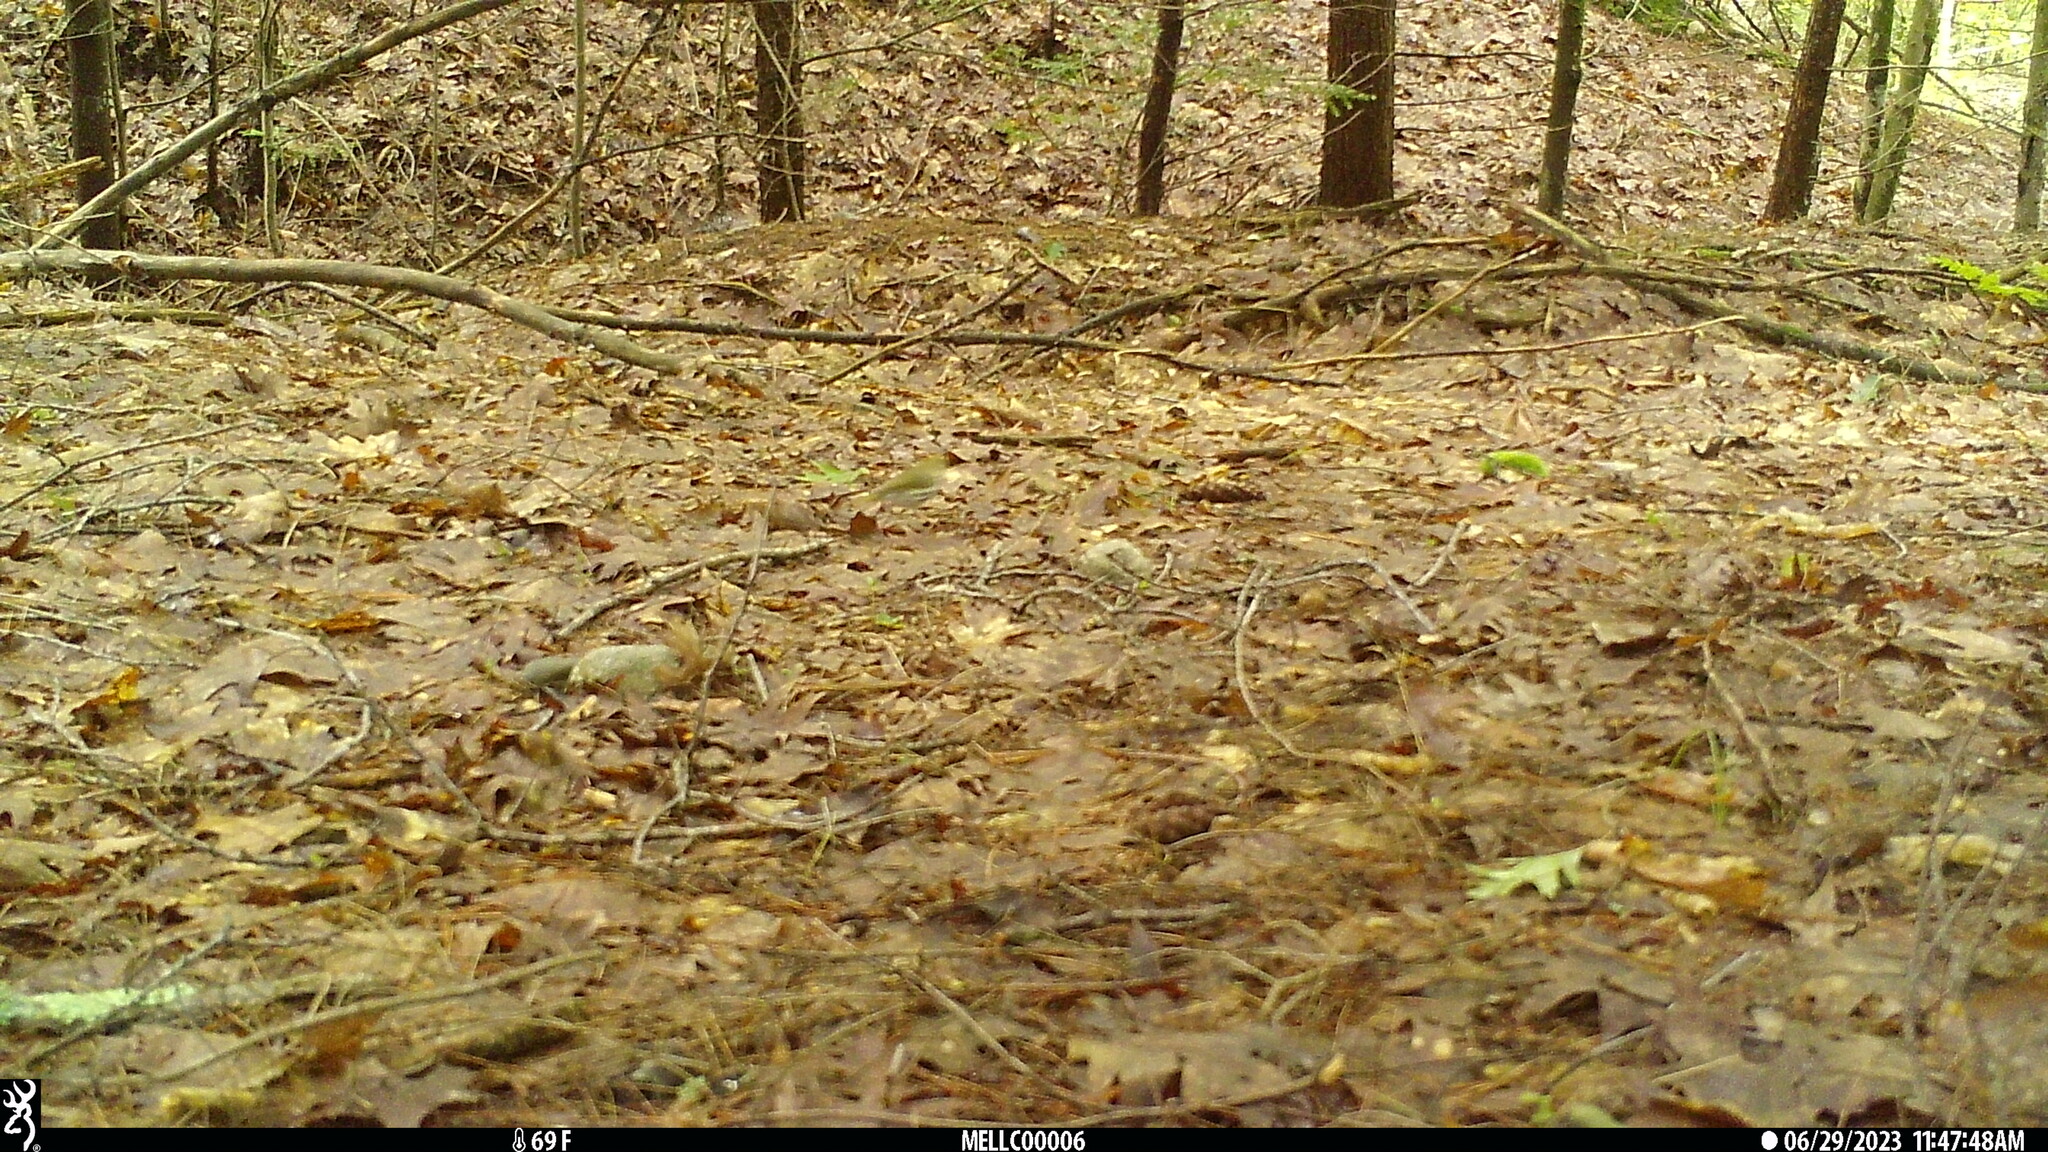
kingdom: Animalia
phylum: Chordata
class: Aves
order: Passeriformes
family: Parulidae
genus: Seiurus
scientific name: Seiurus aurocapilla
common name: Ovenbird
